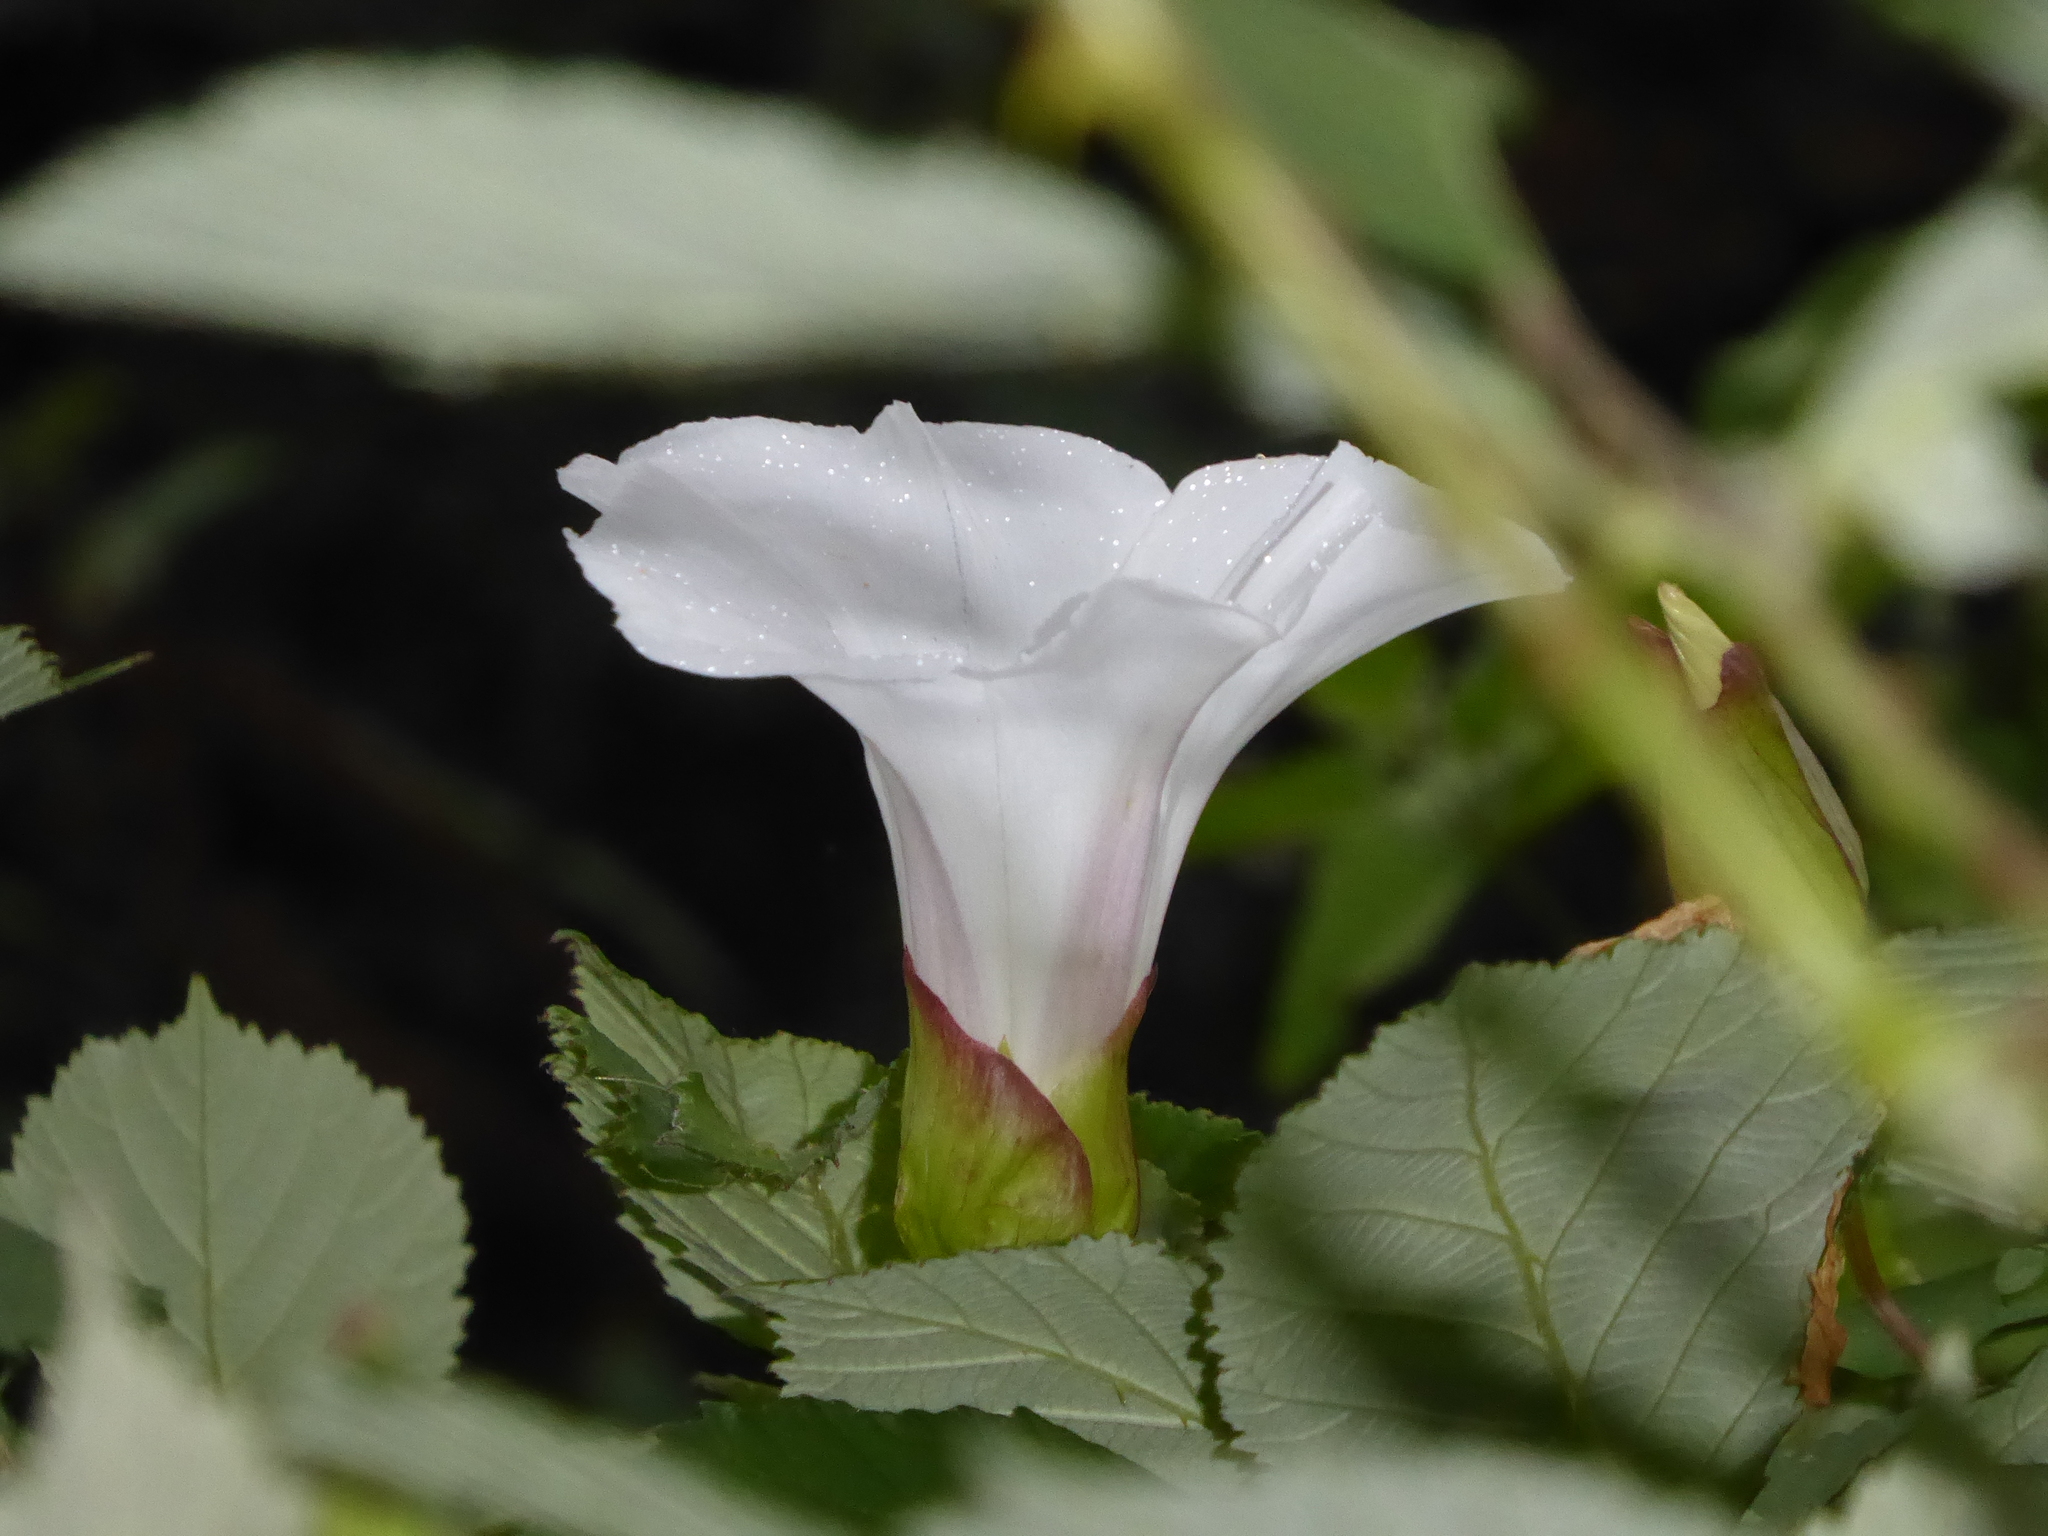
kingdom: Plantae
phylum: Tracheophyta
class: Magnoliopsida
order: Solanales
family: Convolvulaceae
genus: Calystegia
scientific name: Calystegia silvatica
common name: Large bindweed
